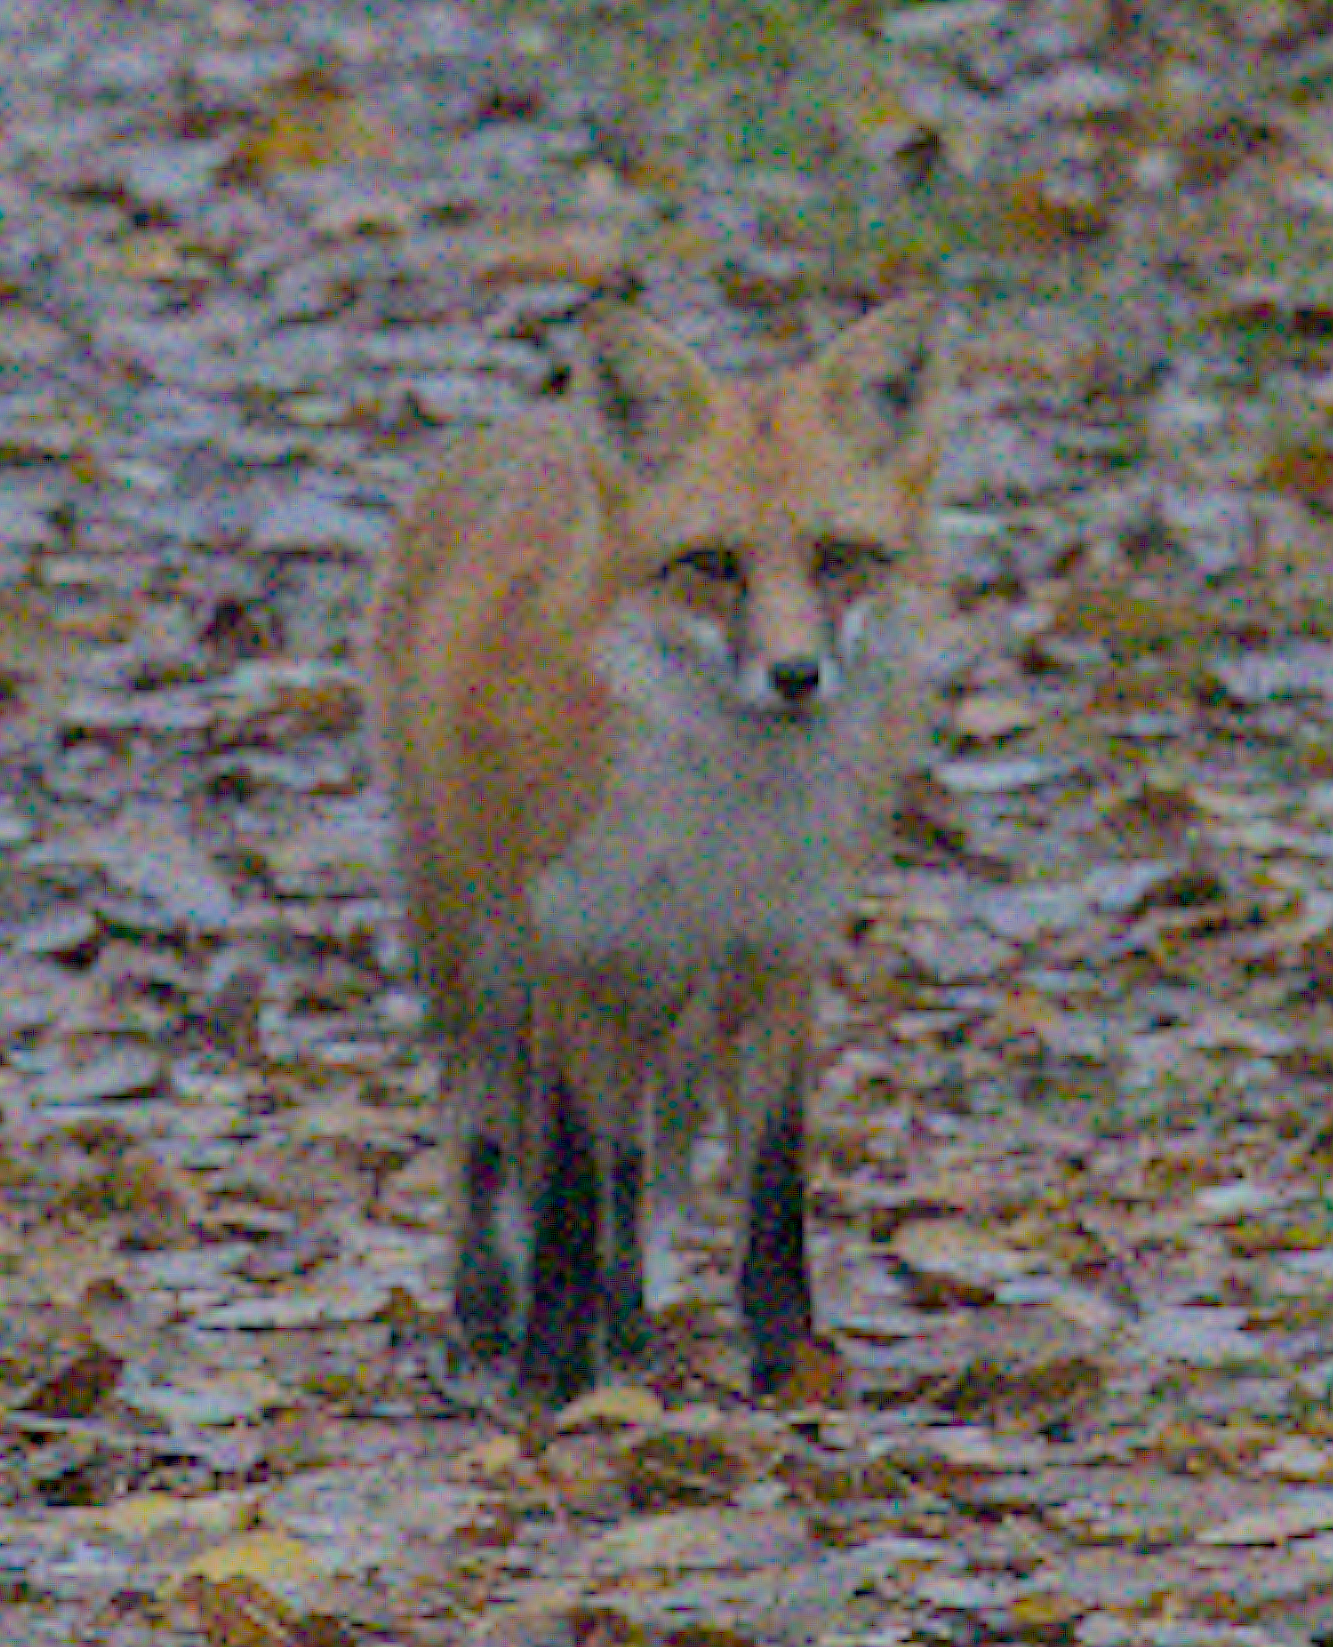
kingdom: Animalia
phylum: Chordata
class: Mammalia
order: Carnivora
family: Canidae
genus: Vulpes
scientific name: Vulpes vulpes
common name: Red fox
